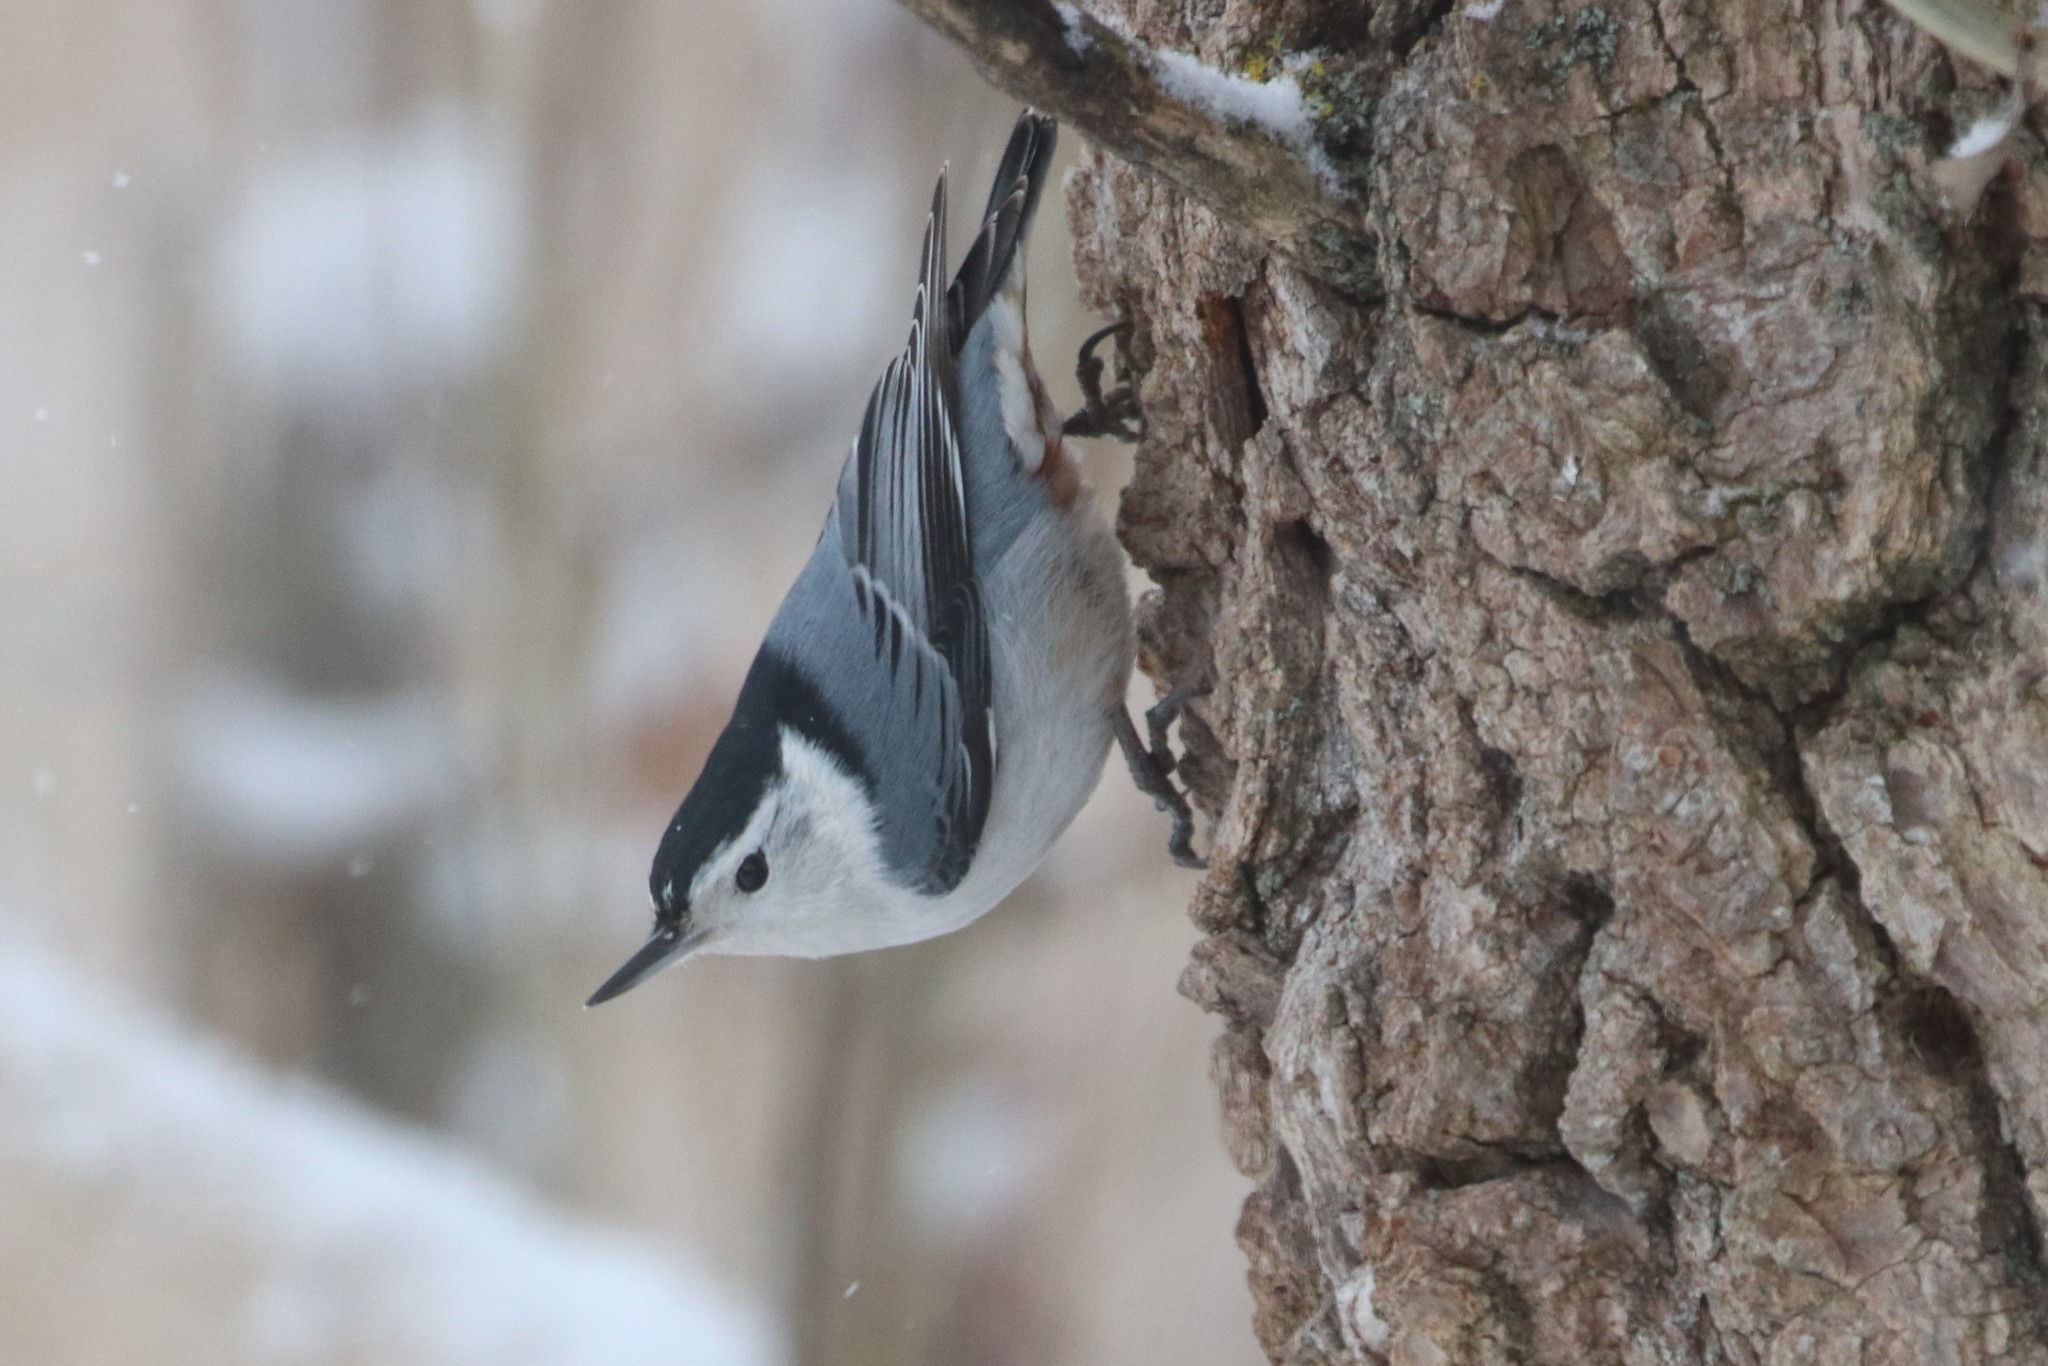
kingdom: Animalia
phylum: Chordata
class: Aves
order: Passeriformes
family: Sittidae
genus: Sitta
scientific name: Sitta carolinensis
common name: White-breasted nuthatch
